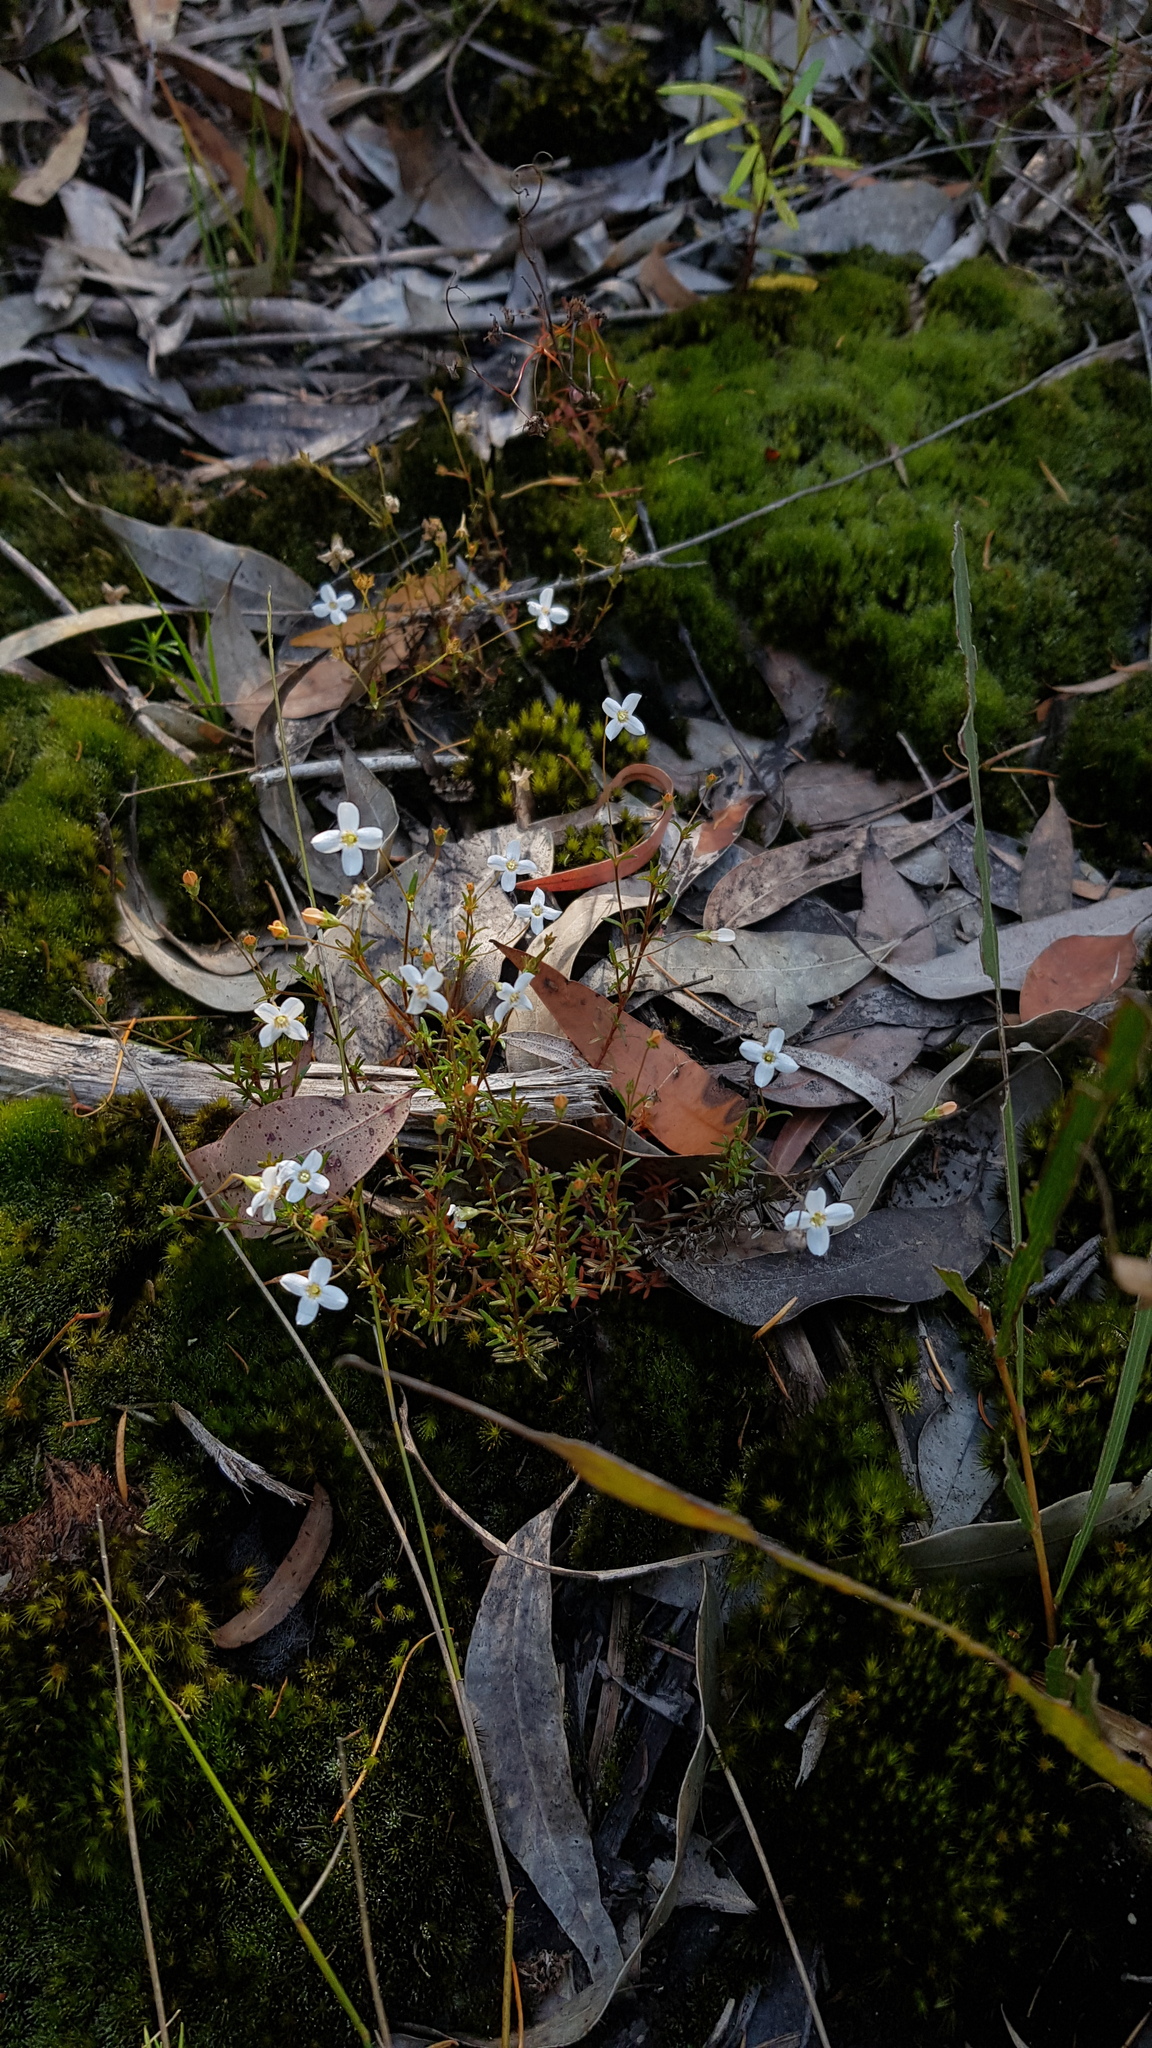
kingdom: Plantae
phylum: Tracheophyta
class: Magnoliopsida
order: Gentianales
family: Loganiaceae
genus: Mitrasacme
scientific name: Mitrasacme polymorpha
